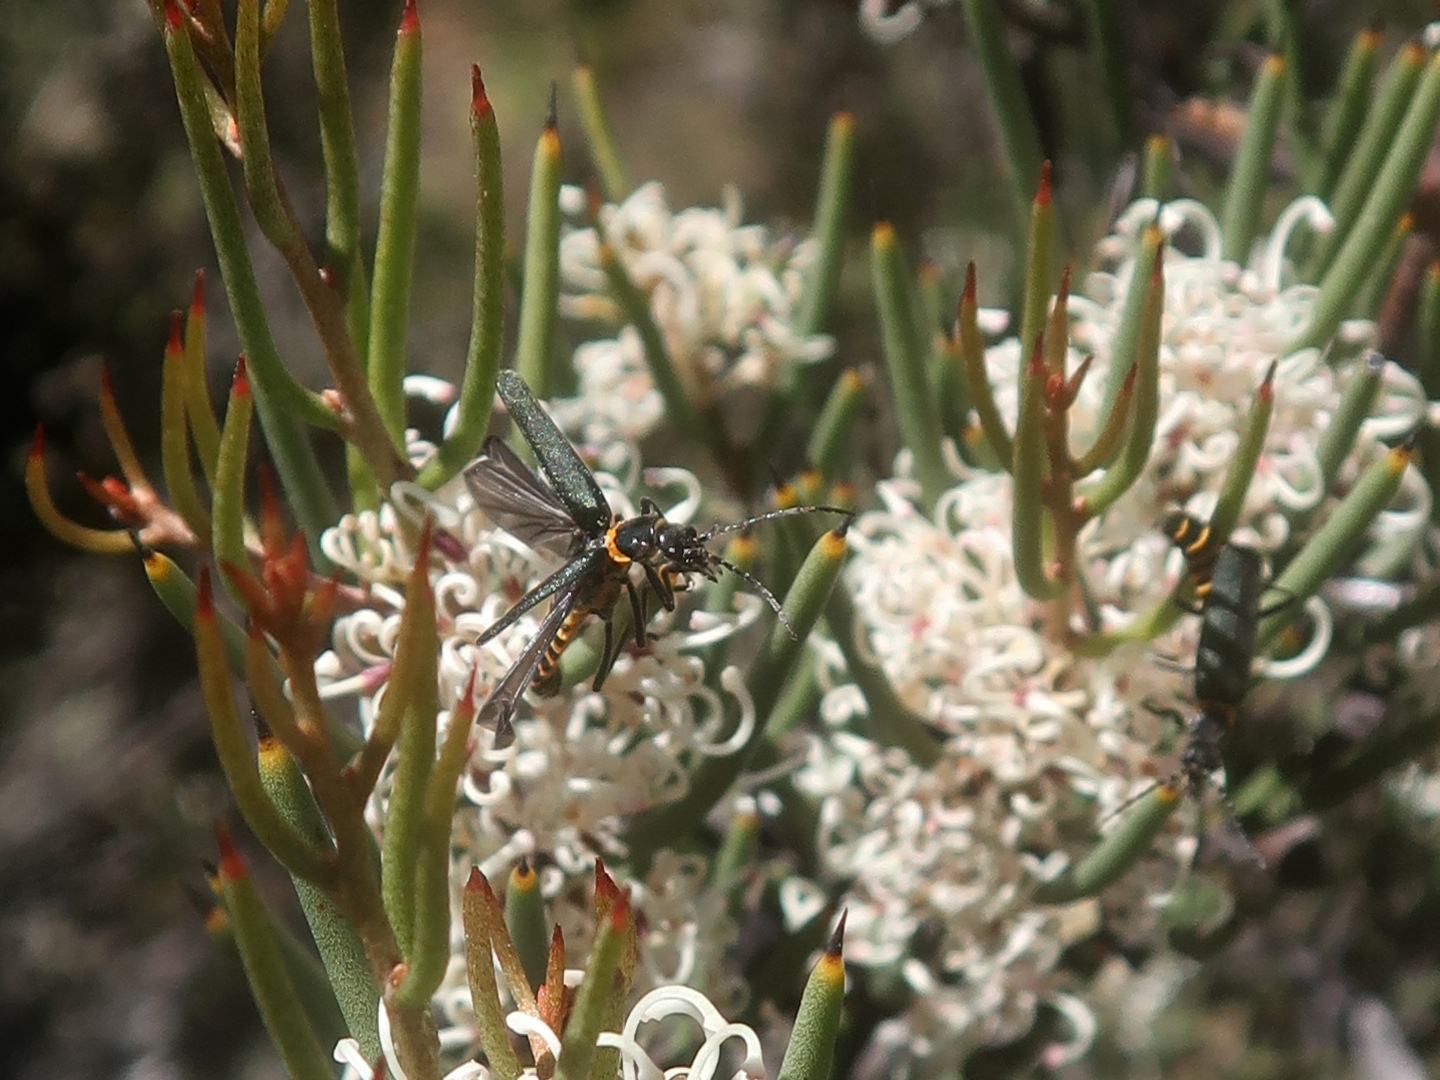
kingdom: Animalia
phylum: Arthropoda
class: Insecta
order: Coleoptera
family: Cantharidae
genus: Chauliognathus
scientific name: Chauliognathus
